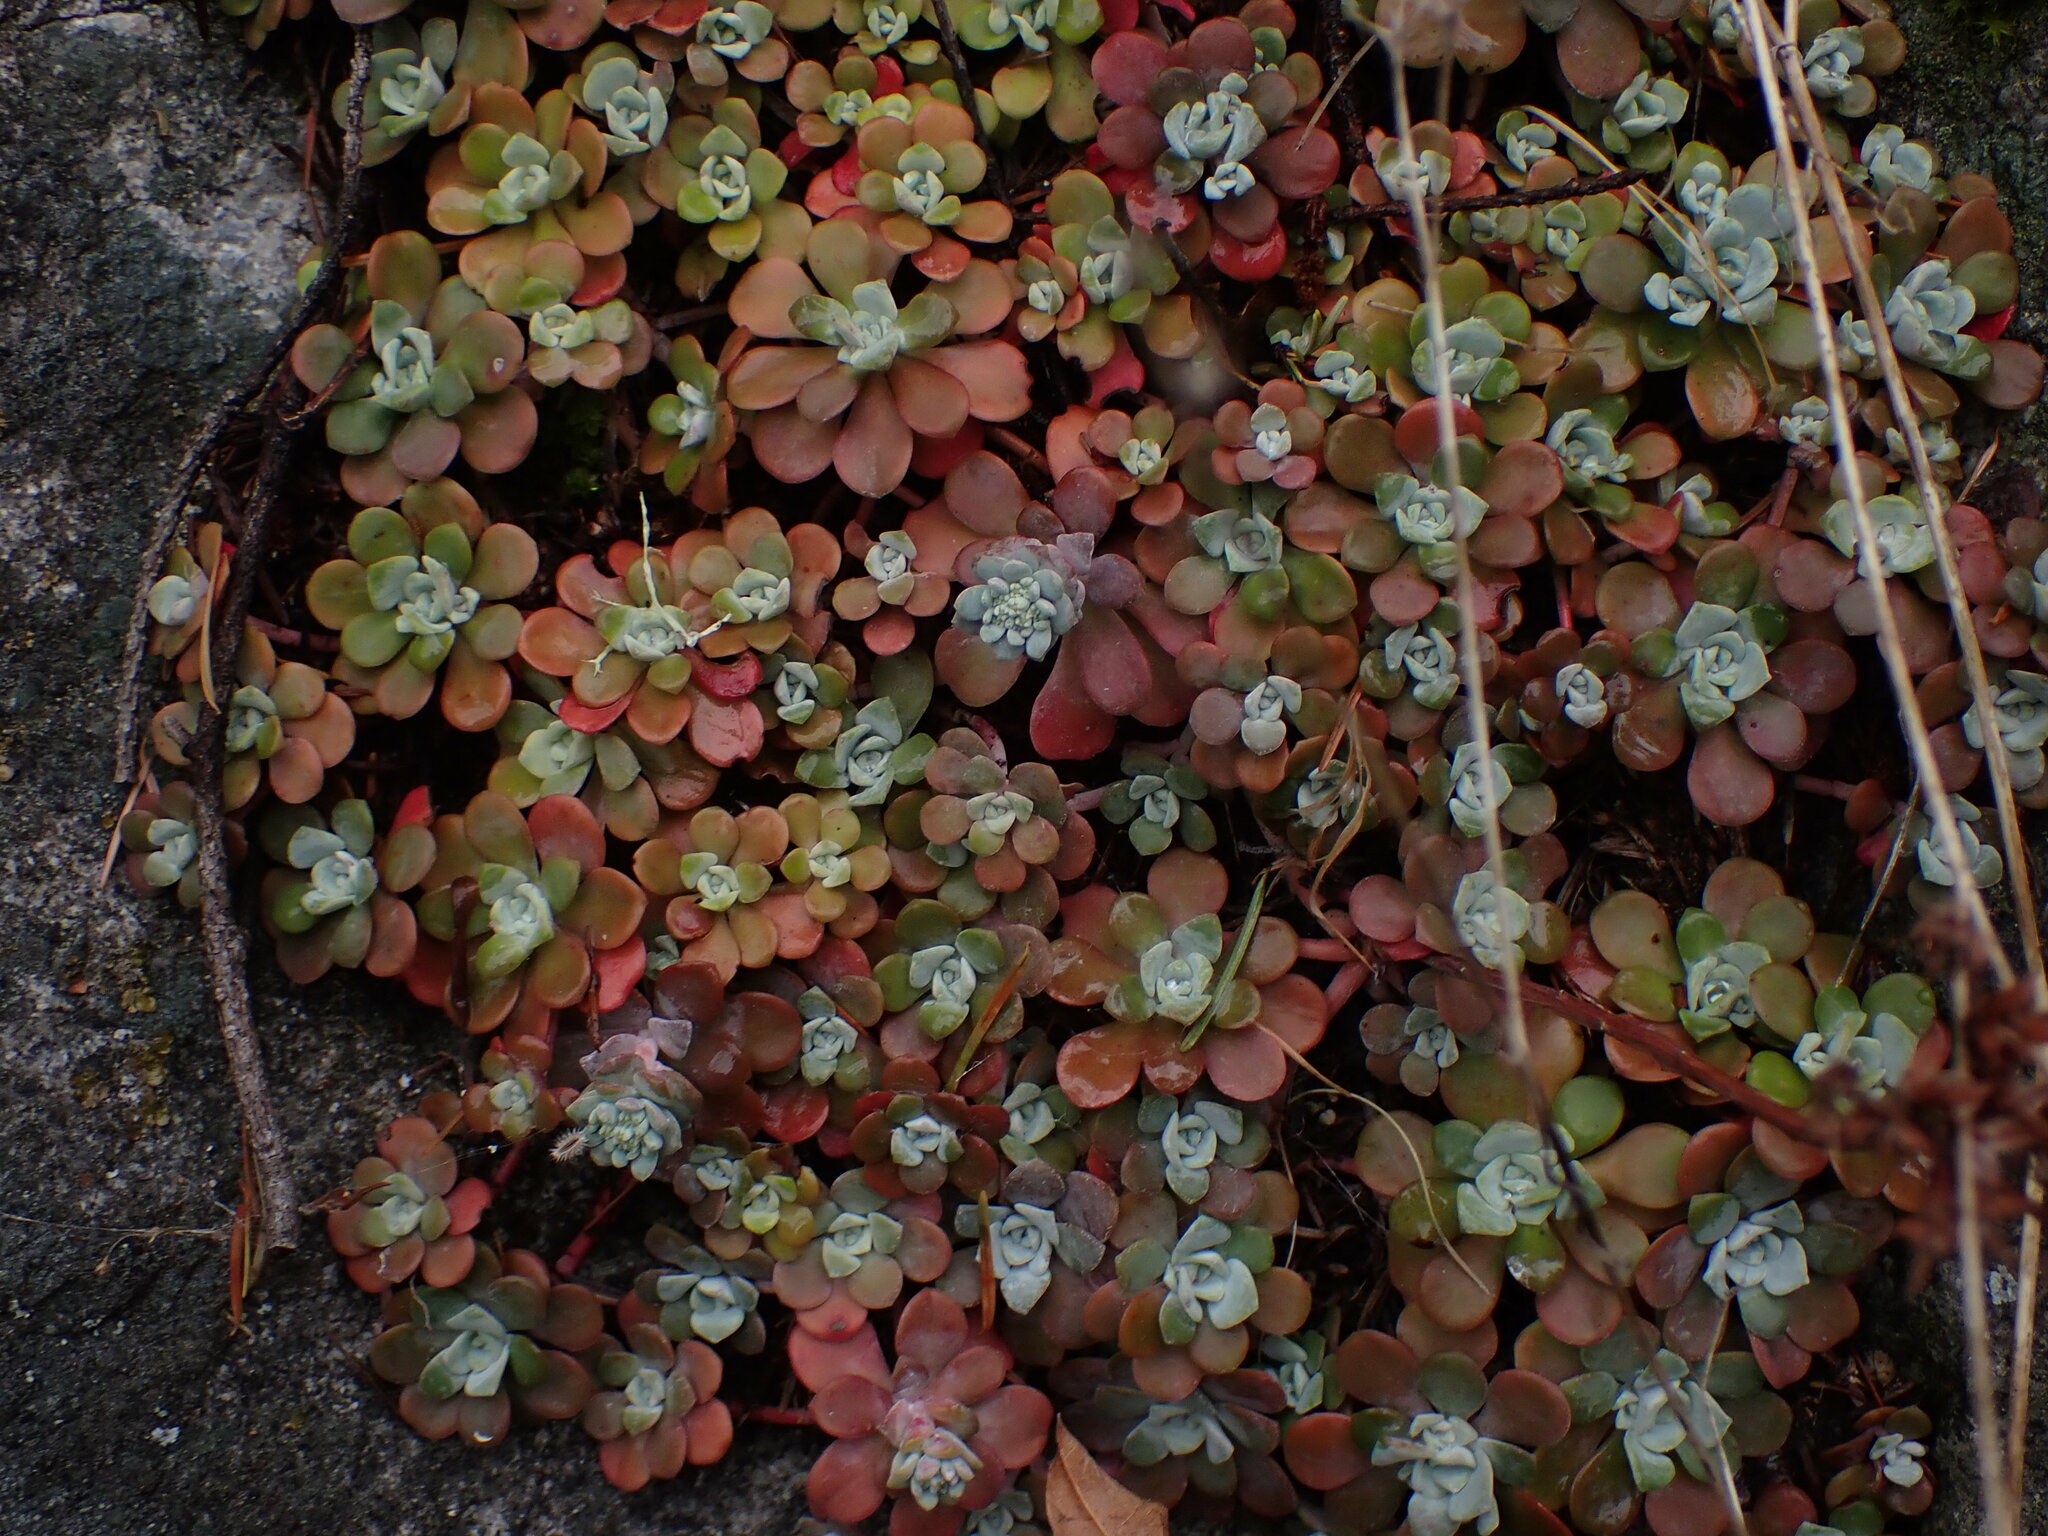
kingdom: Plantae
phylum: Tracheophyta
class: Magnoliopsida
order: Saxifragales
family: Crassulaceae
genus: Sedum
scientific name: Sedum spathulifolium
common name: Colorado stonecrop
